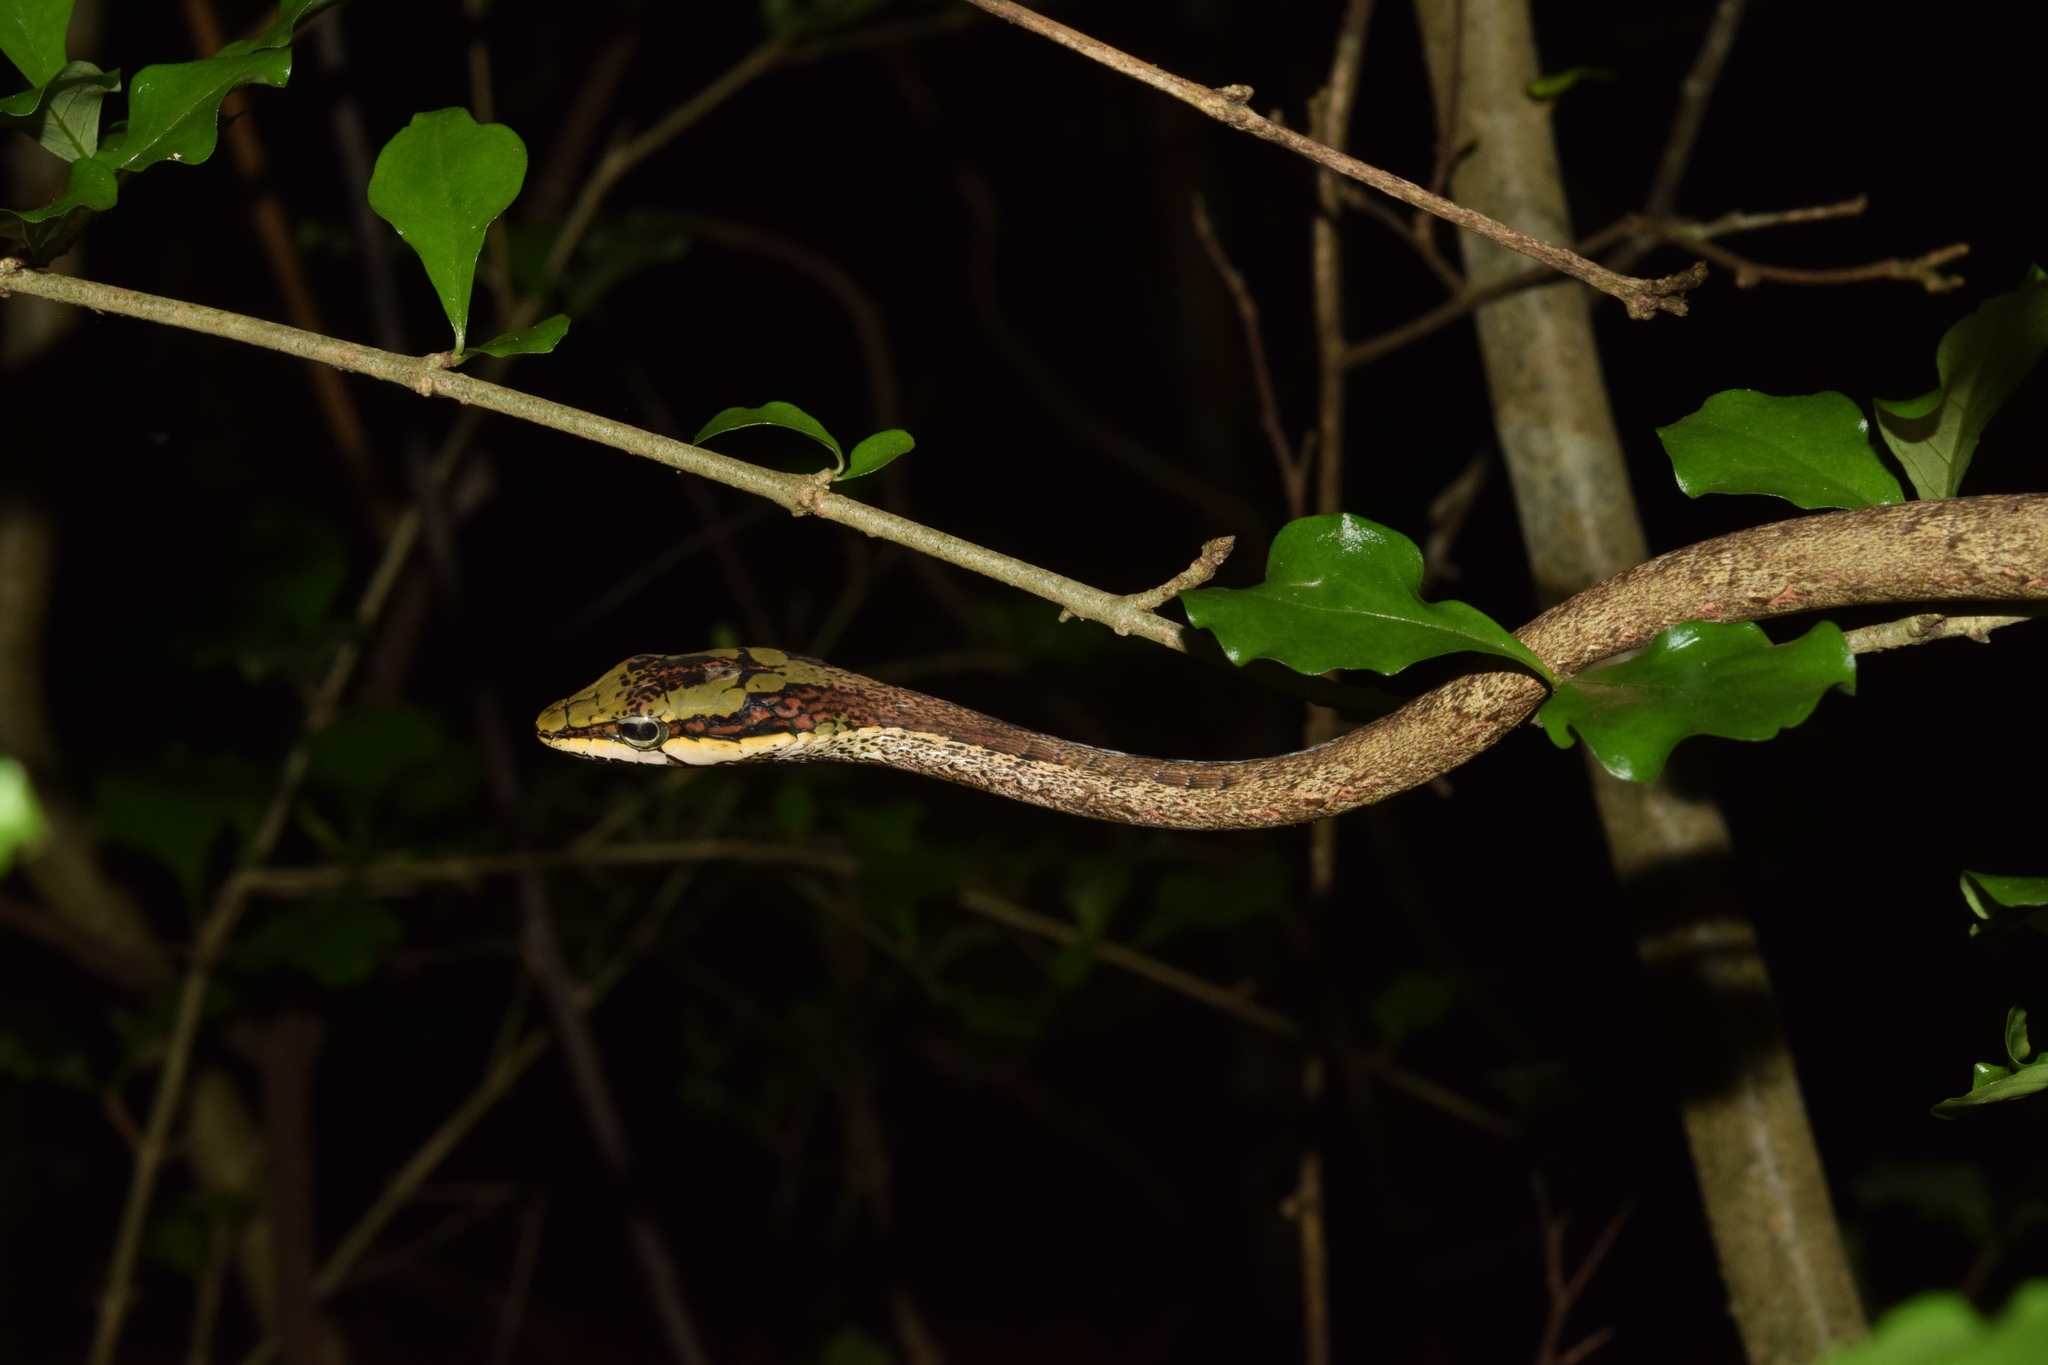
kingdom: Animalia
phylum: Chordata
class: Squamata
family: Colubridae
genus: Thelotornis
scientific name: Thelotornis capensis
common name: Savanna vine snake
